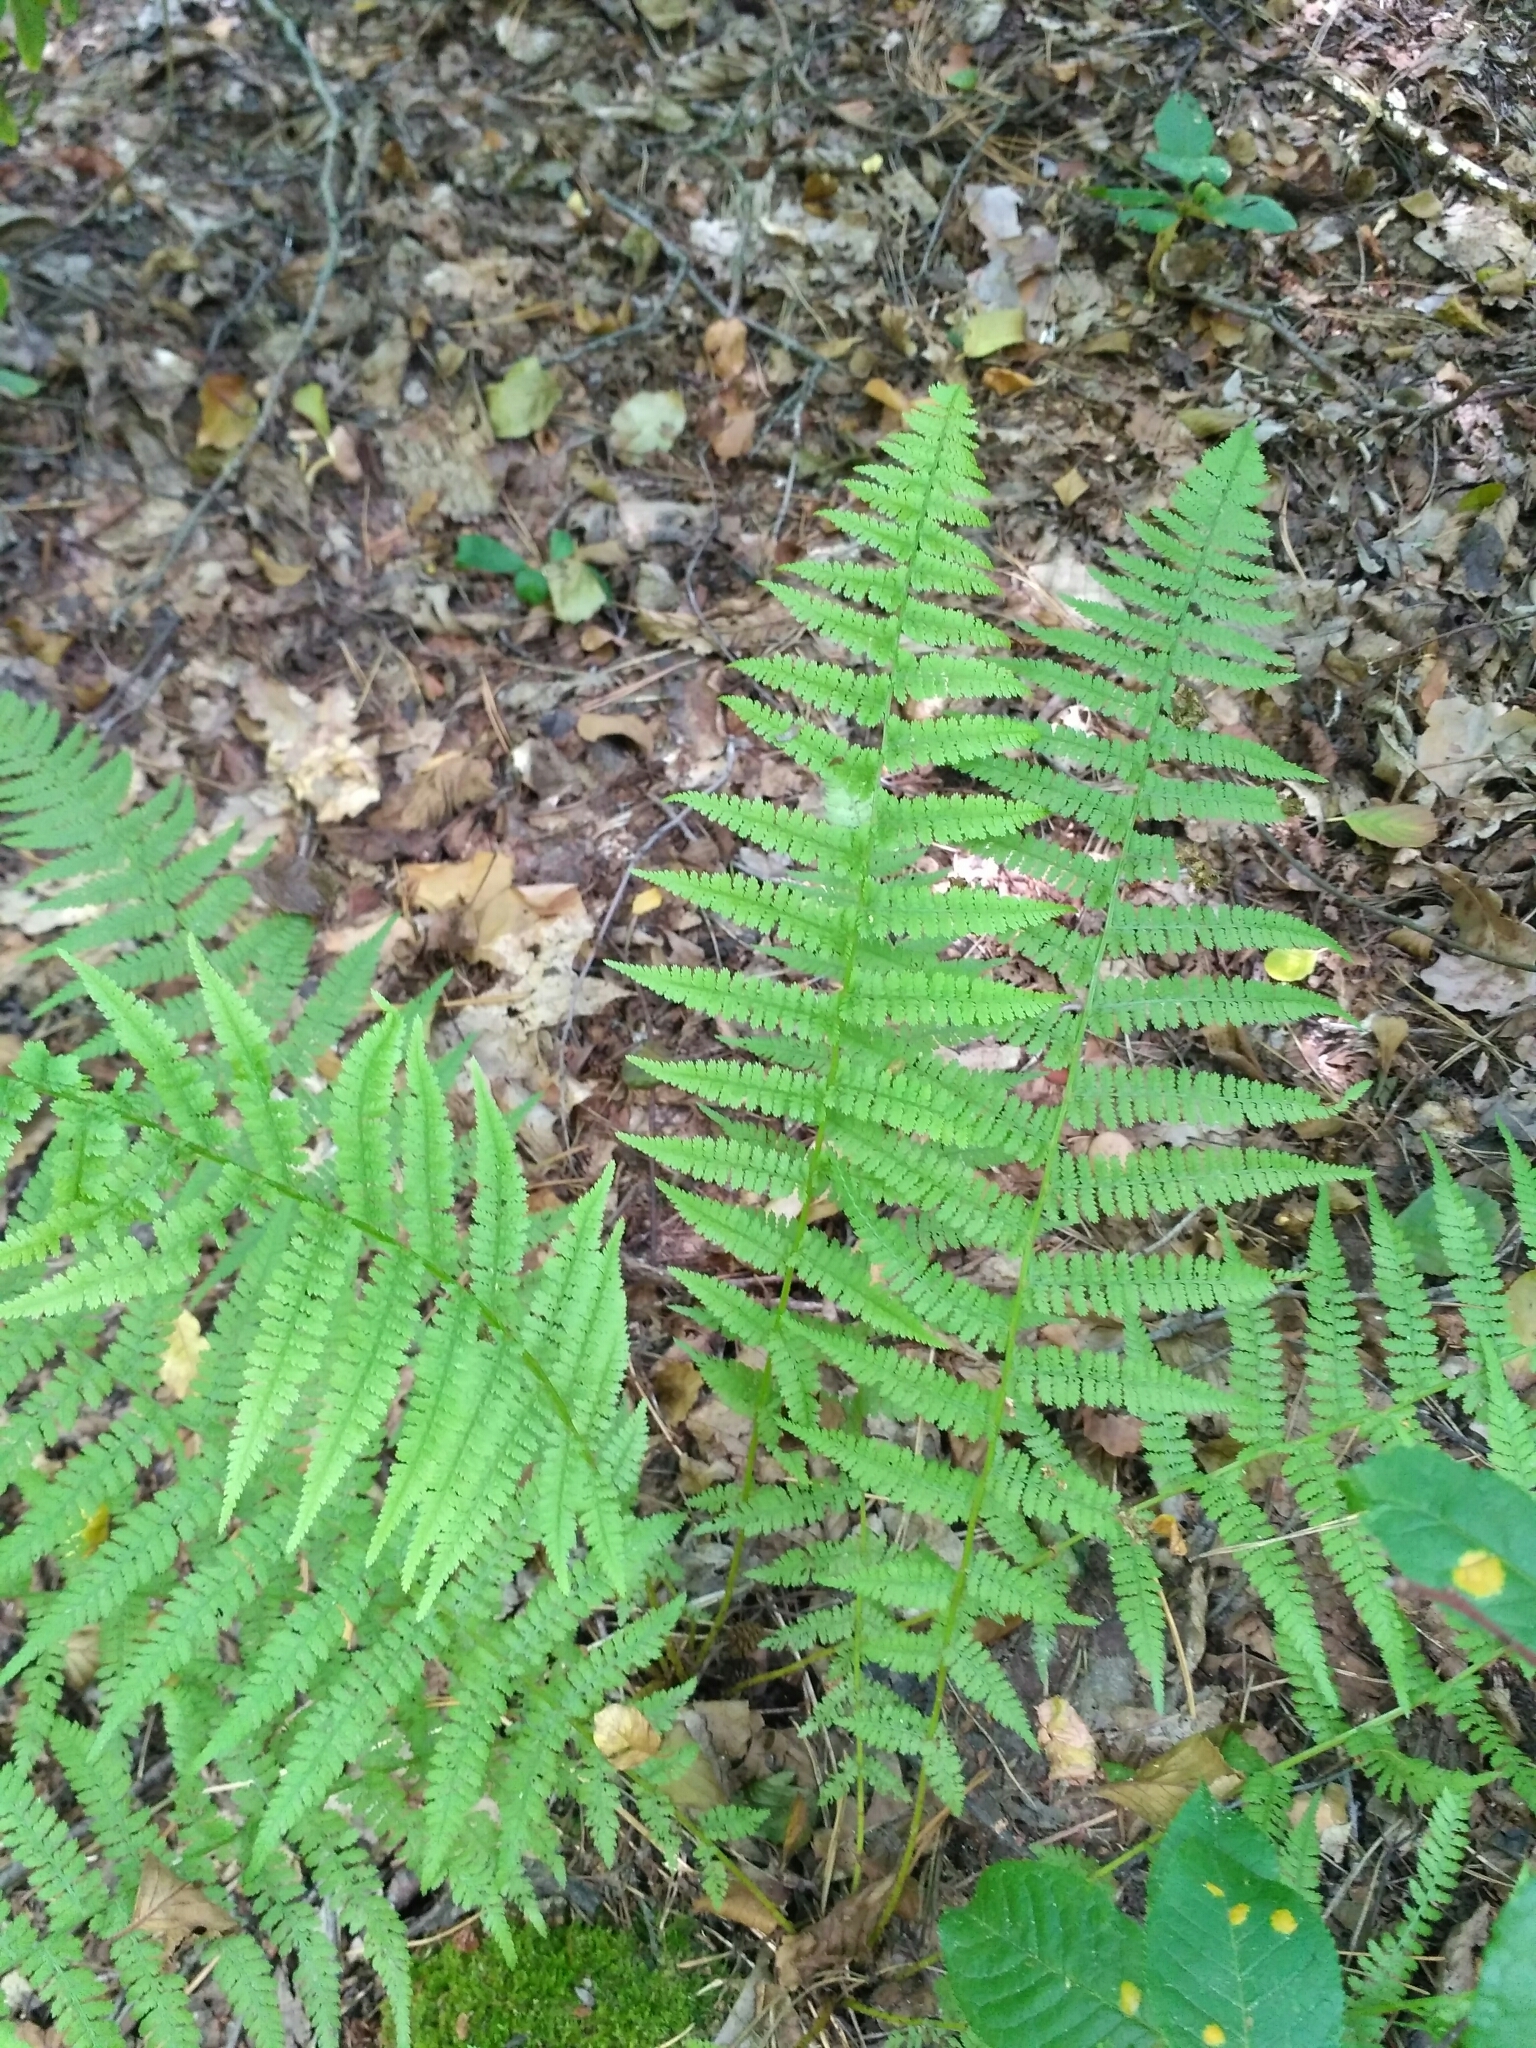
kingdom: Plantae
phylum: Tracheophyta
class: Polypodiopsida
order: Polypodiales
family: Athyriaceae
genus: Athyrium
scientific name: Athyrium filix-femina
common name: Lady fern
